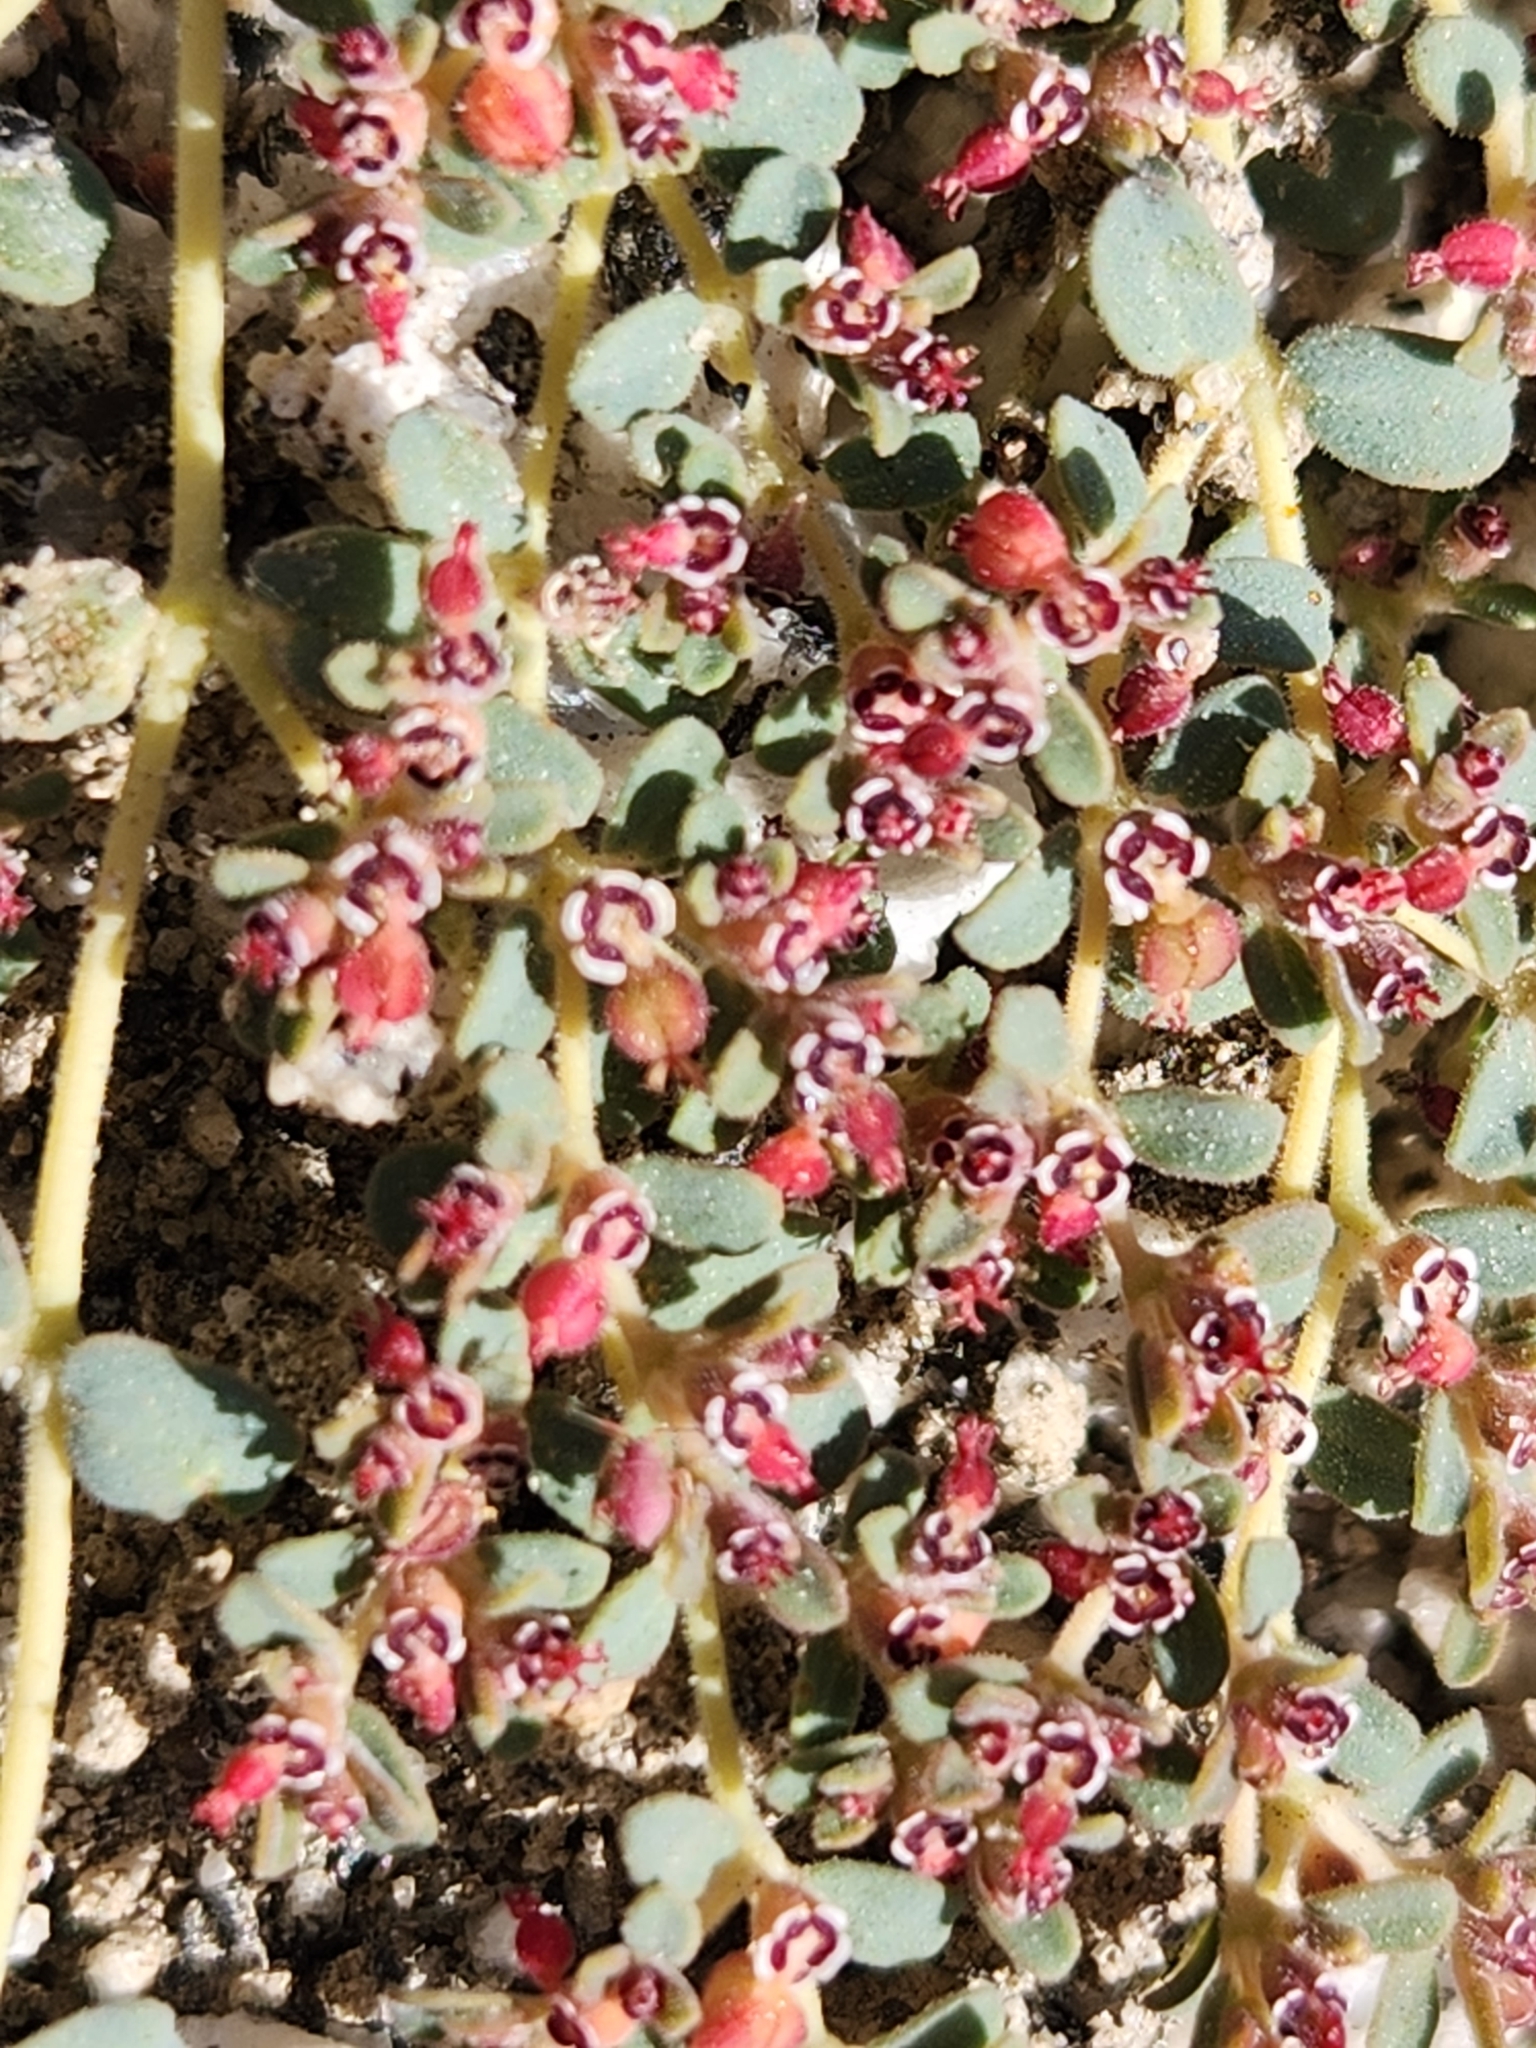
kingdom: Plantae
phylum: Tracheophyta
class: Magnoliopsida
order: Malpighiales
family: Euphorbiaceae
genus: Euphorbia
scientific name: Euphorbia polycarpa
